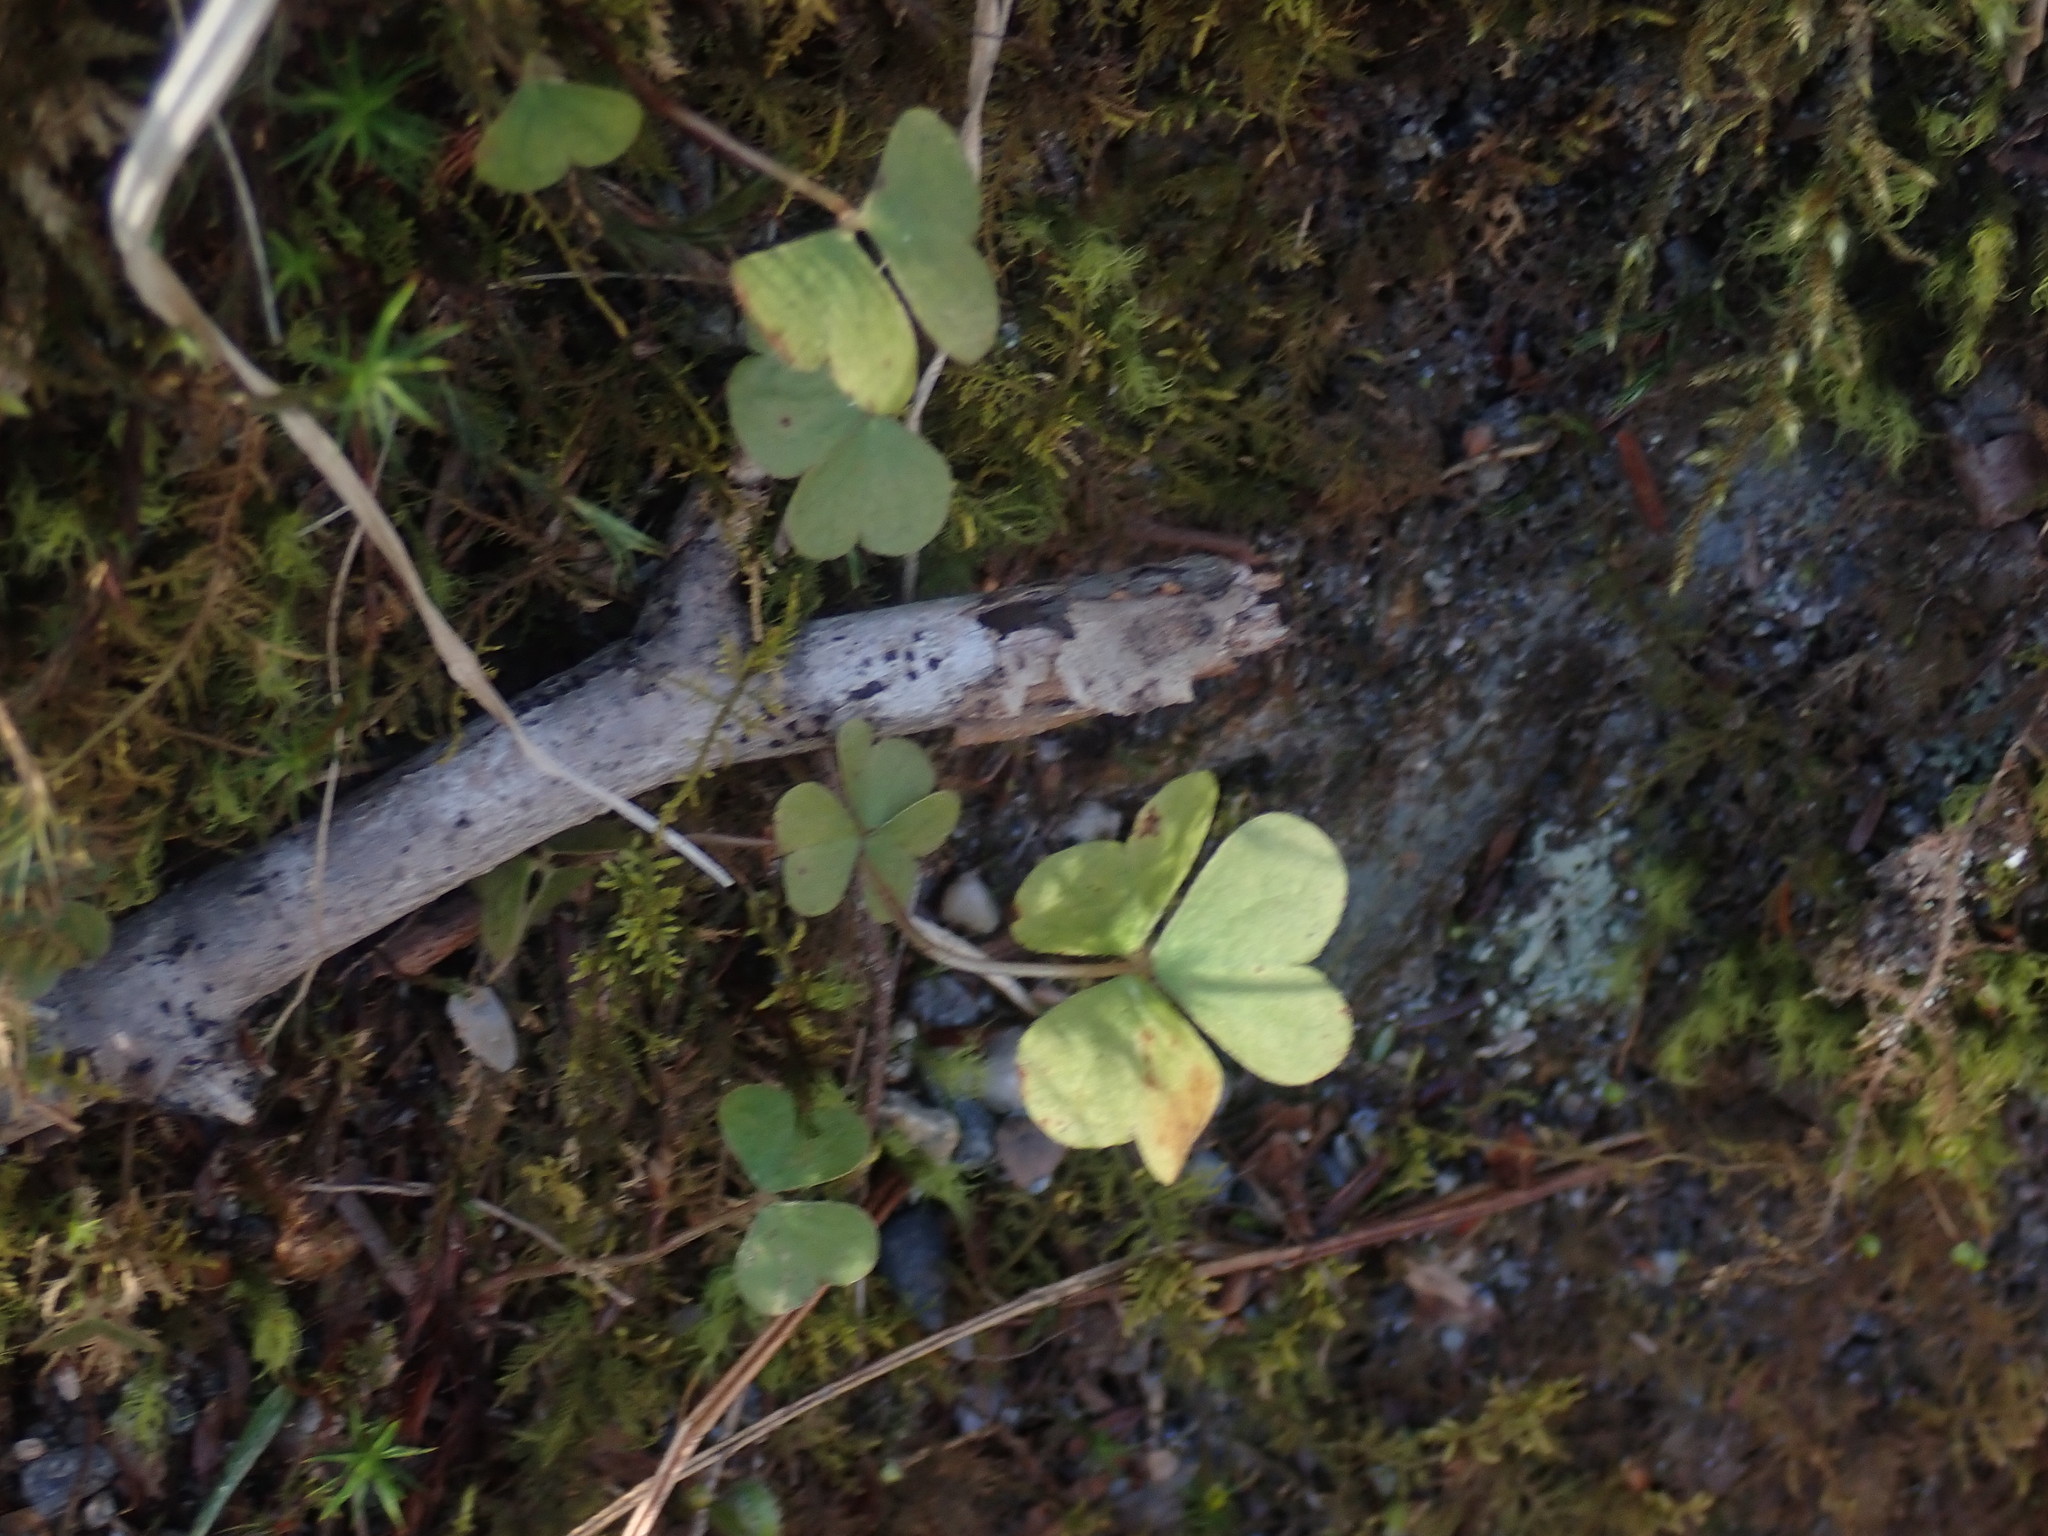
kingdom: Plantae
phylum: Tracheophyta
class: Magnoliopsida
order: Oxalidales
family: Oxalidaceae
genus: Oxalis
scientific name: Oxalis montana
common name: American wood-sorrel
